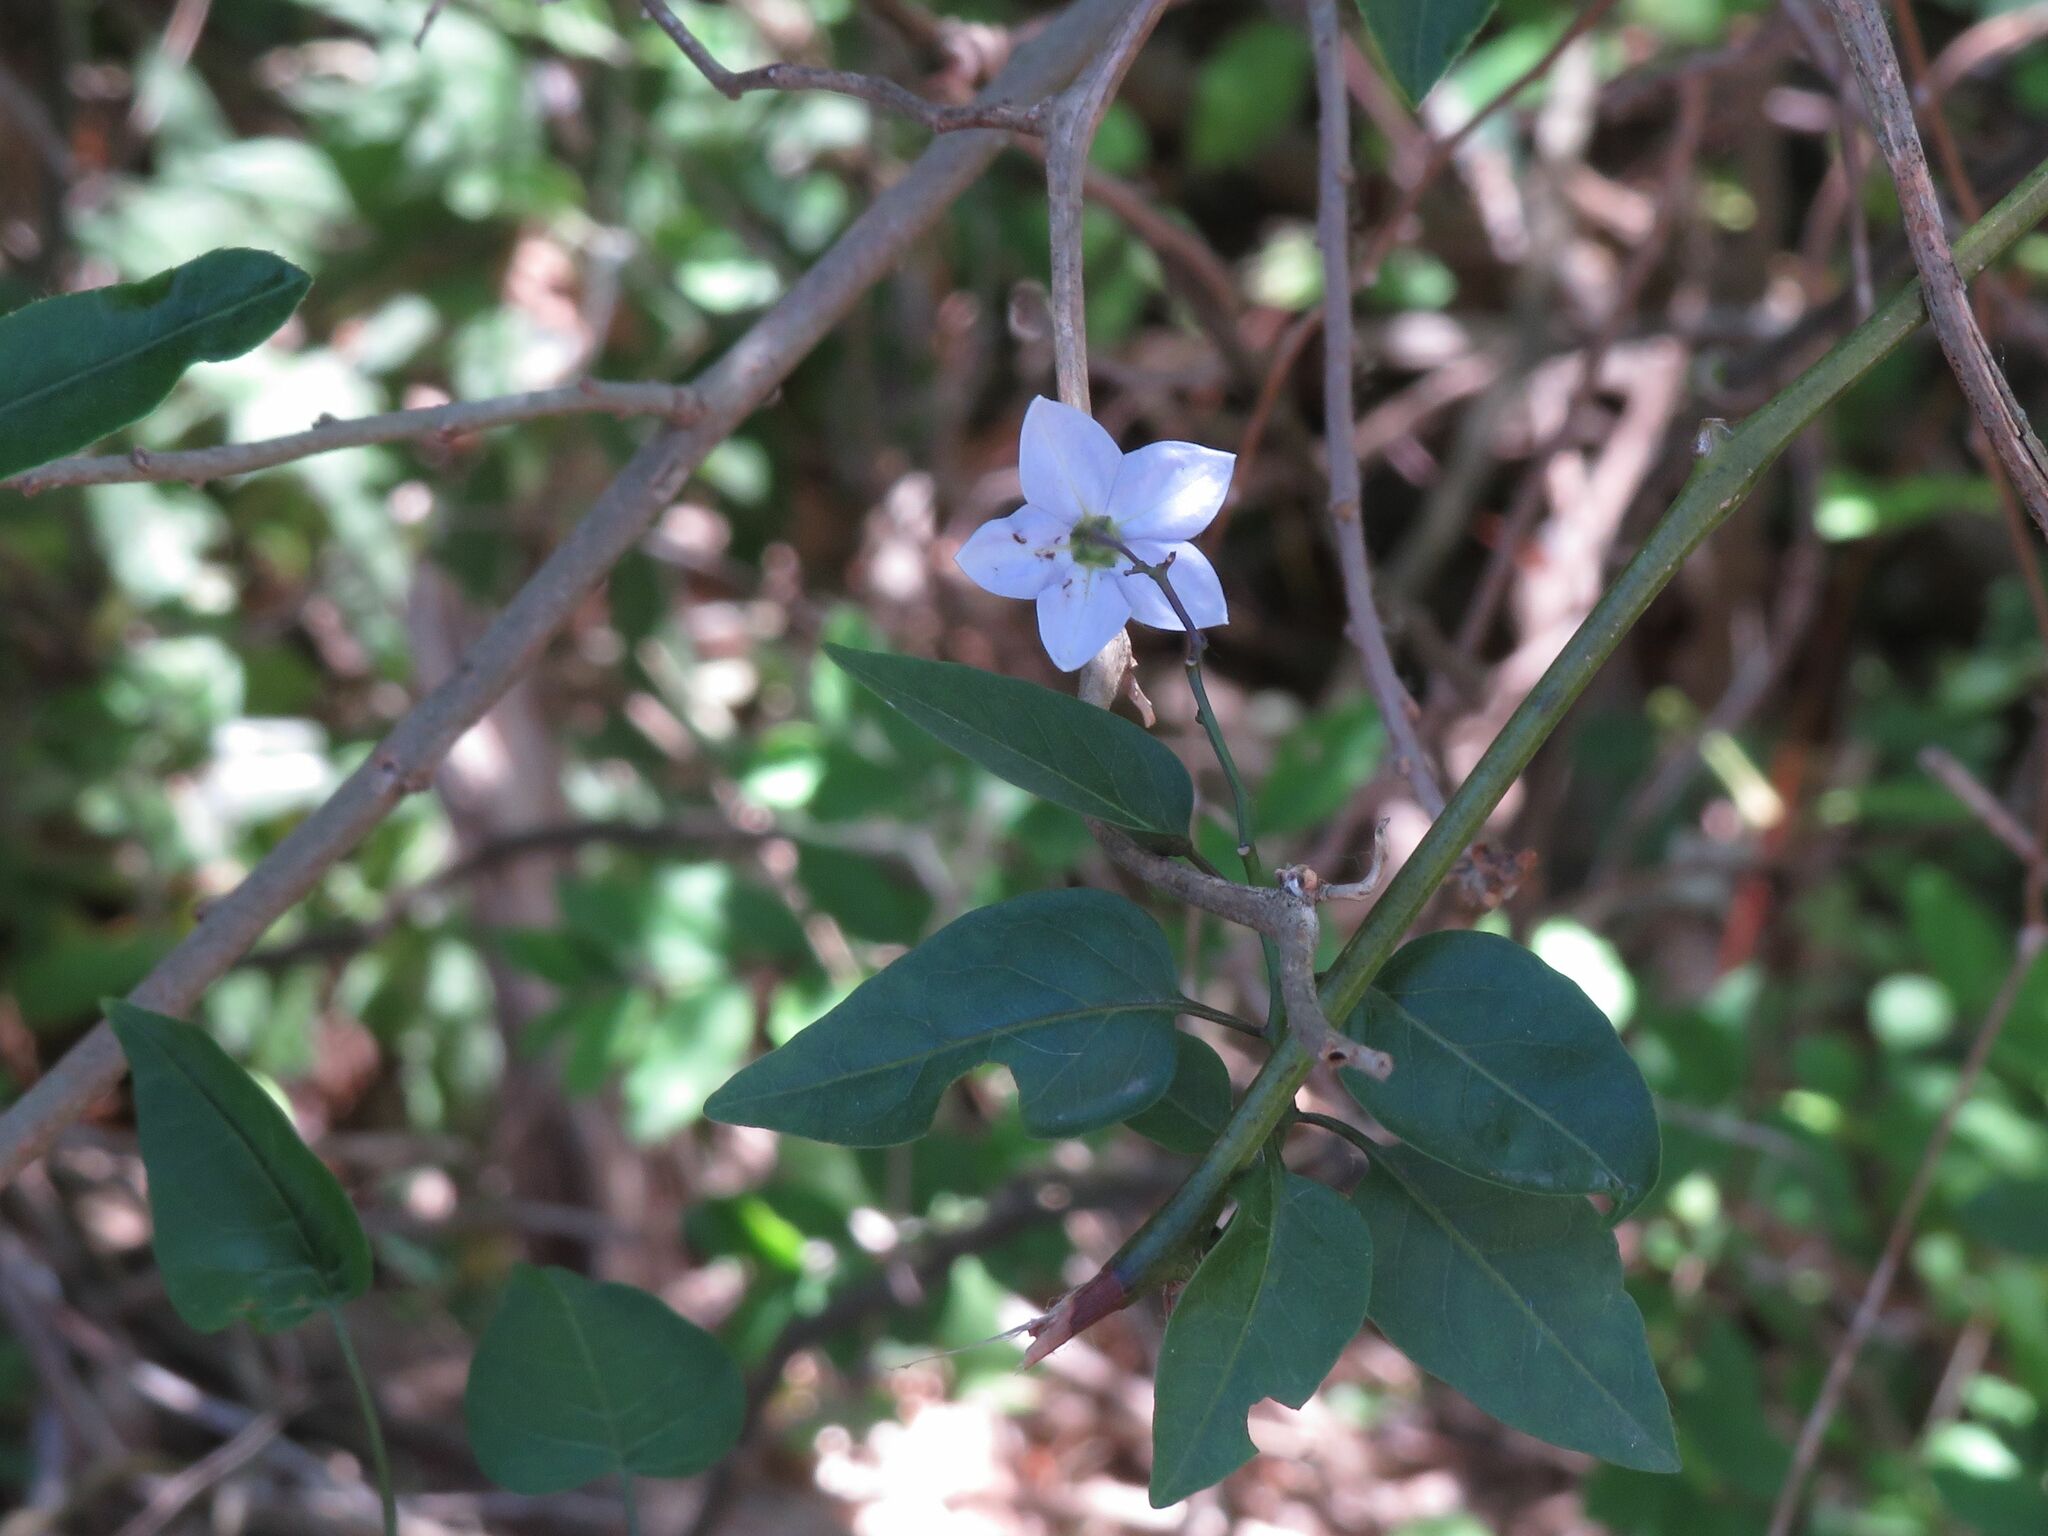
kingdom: Plantae
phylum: Tracheophyta
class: Magnoliopsida
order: Solanales
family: Solanaceae
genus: Solanum
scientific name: Solanum laxum
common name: Nightshade
